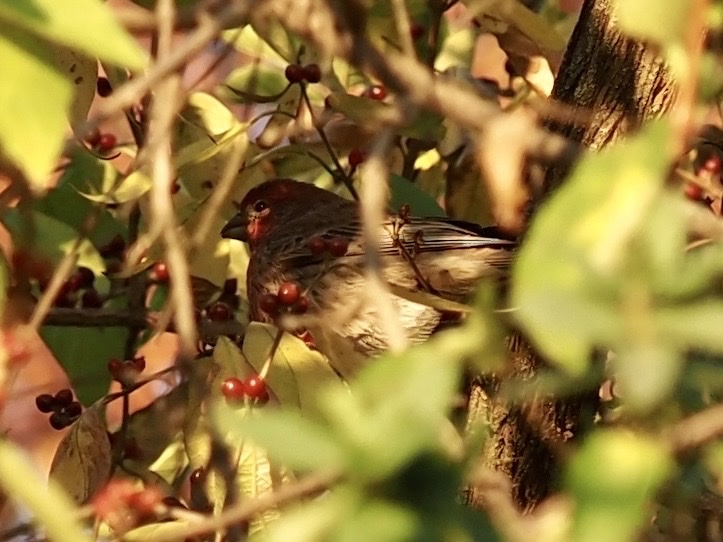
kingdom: Animalia
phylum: Chordata
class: Aves
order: Passeriformes
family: Fringillidae
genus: Haemorhous
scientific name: Haemorhous mexicanus
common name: House finch
